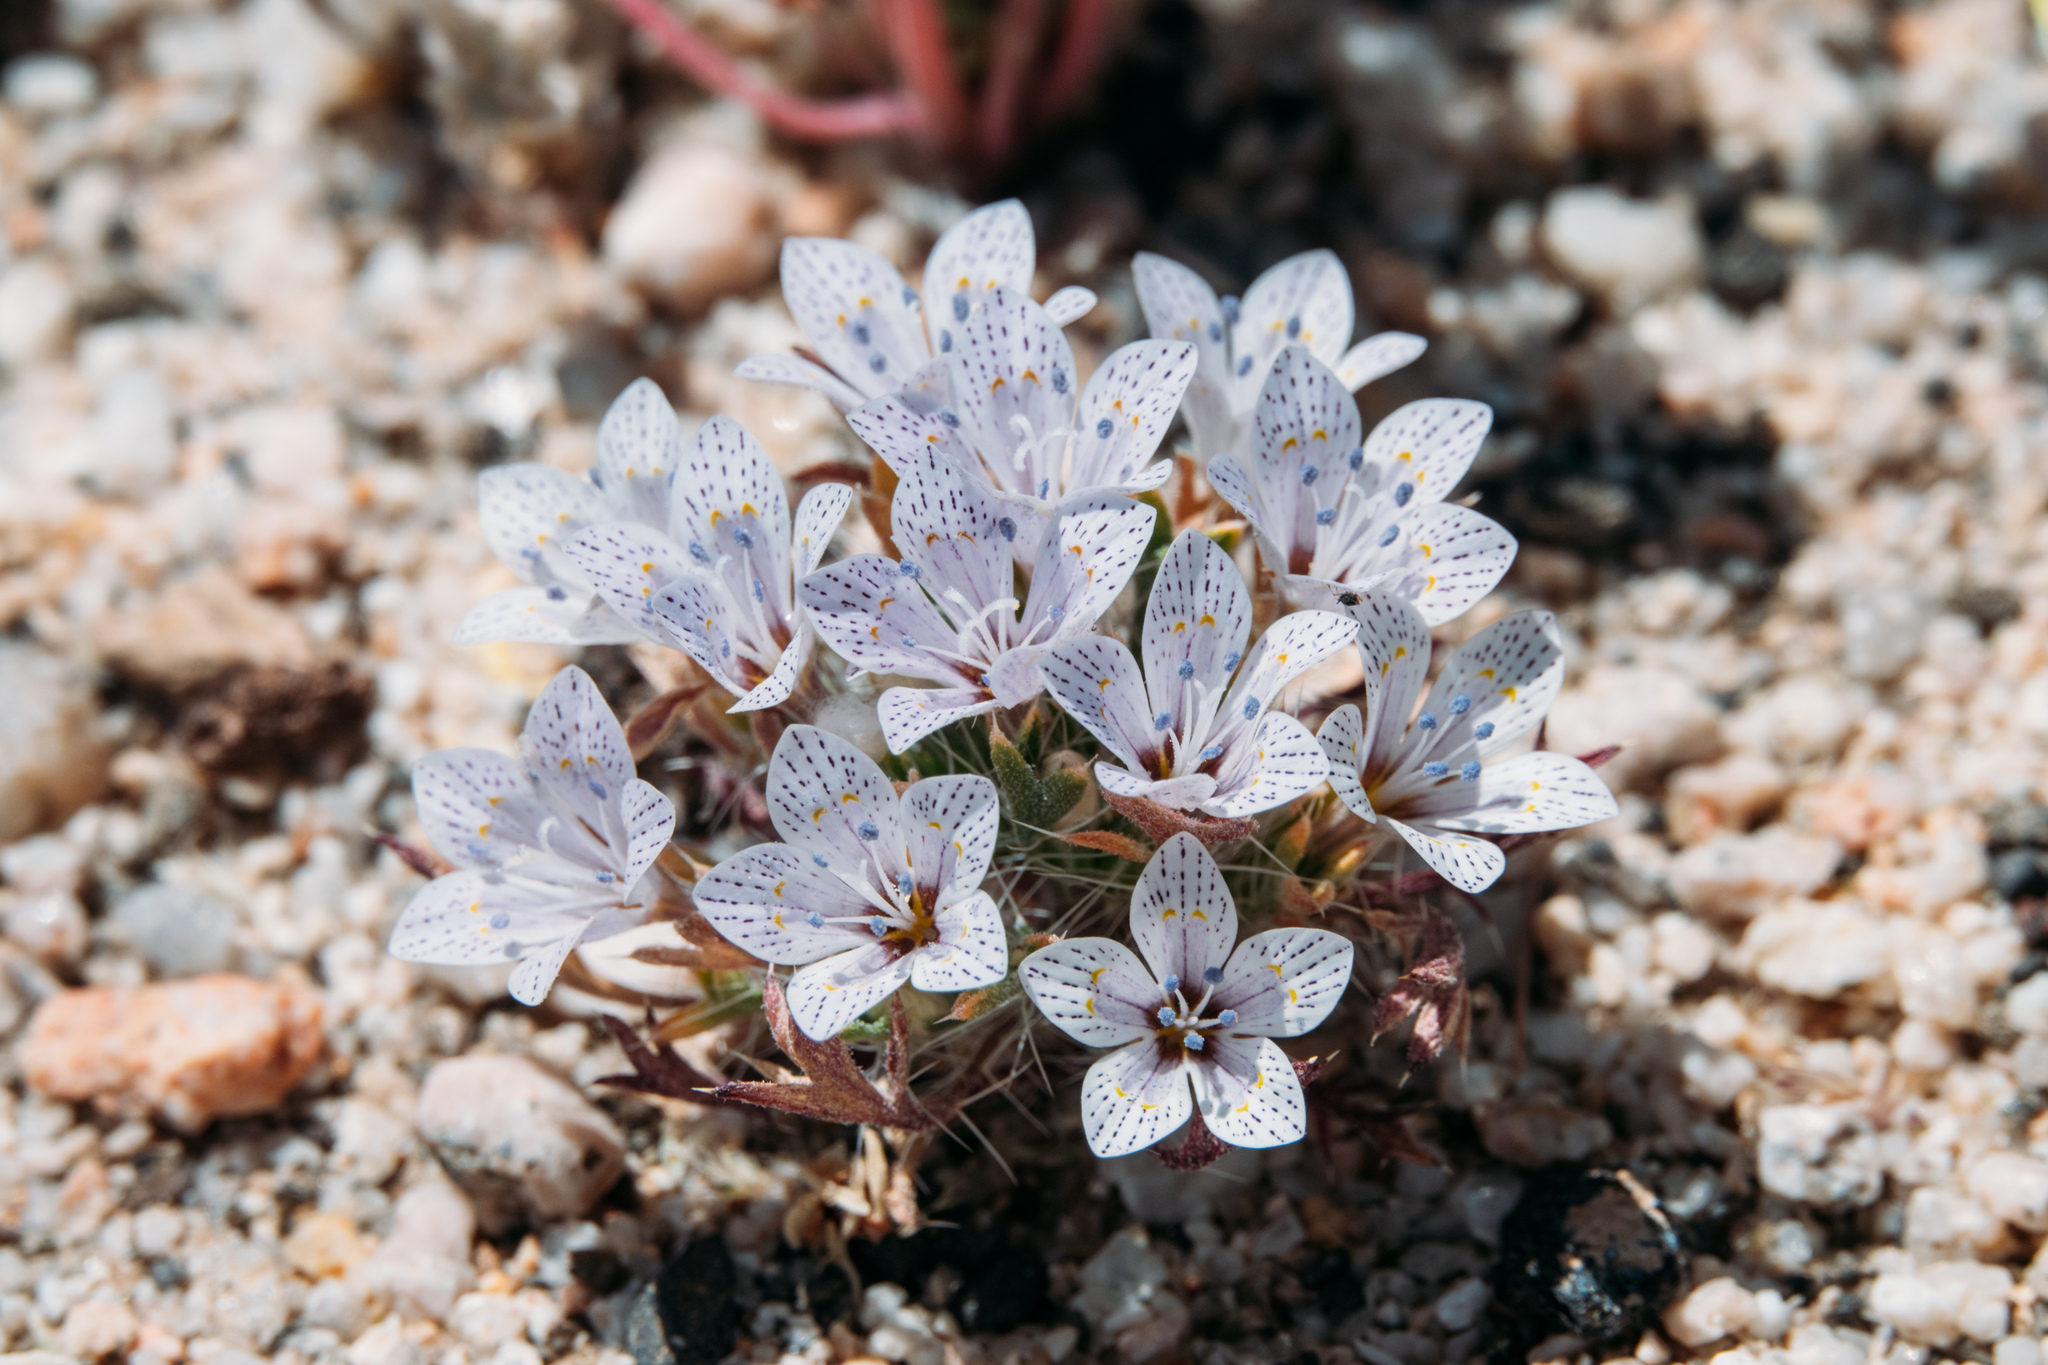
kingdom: Plantae
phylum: Tracheophyta
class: Magnoliopsida
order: Ericales
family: Polemoniaceae
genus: Langloisia
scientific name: Langloisia setosissima
